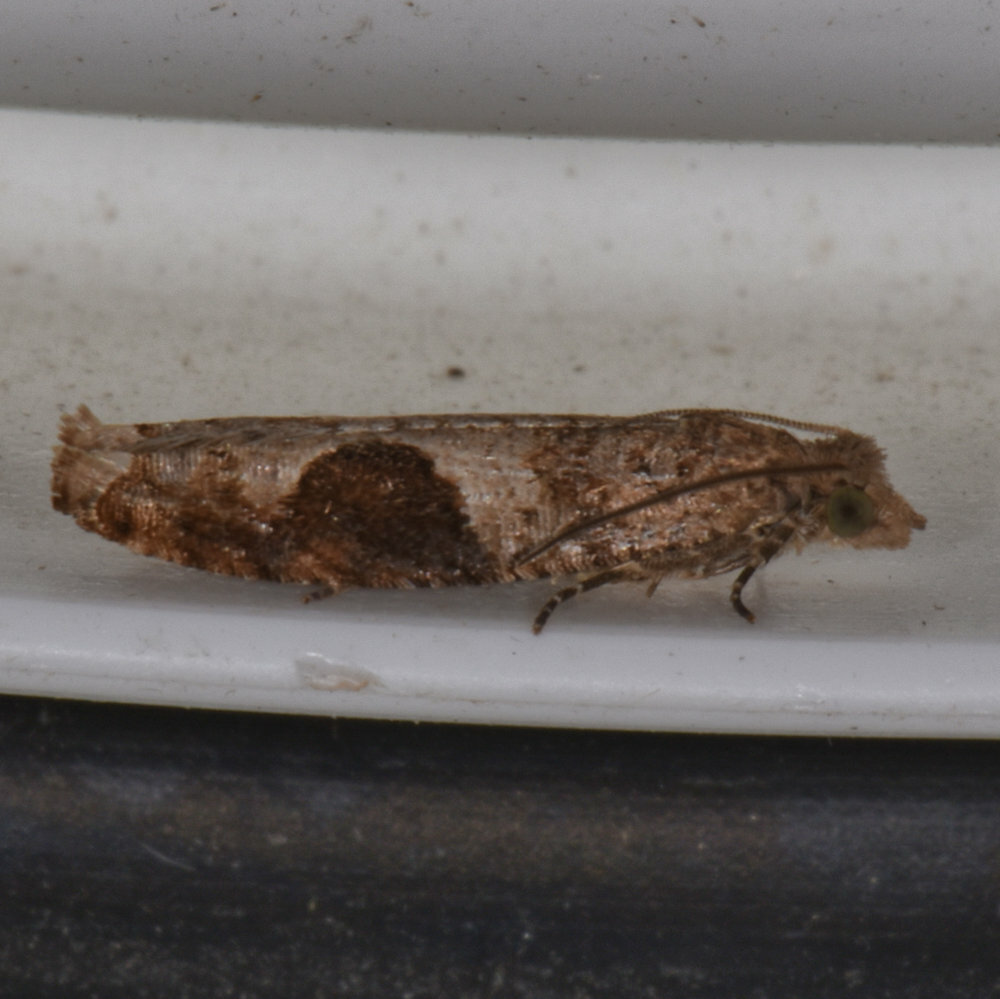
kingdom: Animalia
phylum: Arthropoda
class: Insecta
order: Lepidoptera
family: Tortricidae
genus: Pseudexentera
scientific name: Pseudexentera virginiana
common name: Virginia pseudexentera moth
